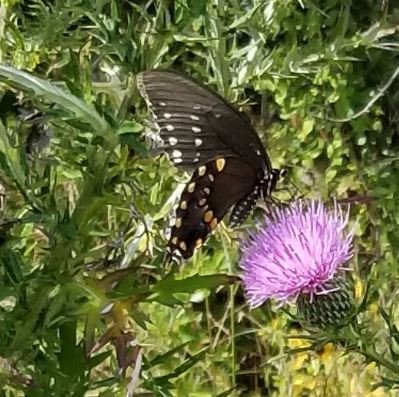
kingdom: Animalia
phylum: Arthropoda
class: Insecta
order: Lepidoptera
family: Papilionidae
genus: Papilio
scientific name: Papilio troilus
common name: Spicebush swallowtail
